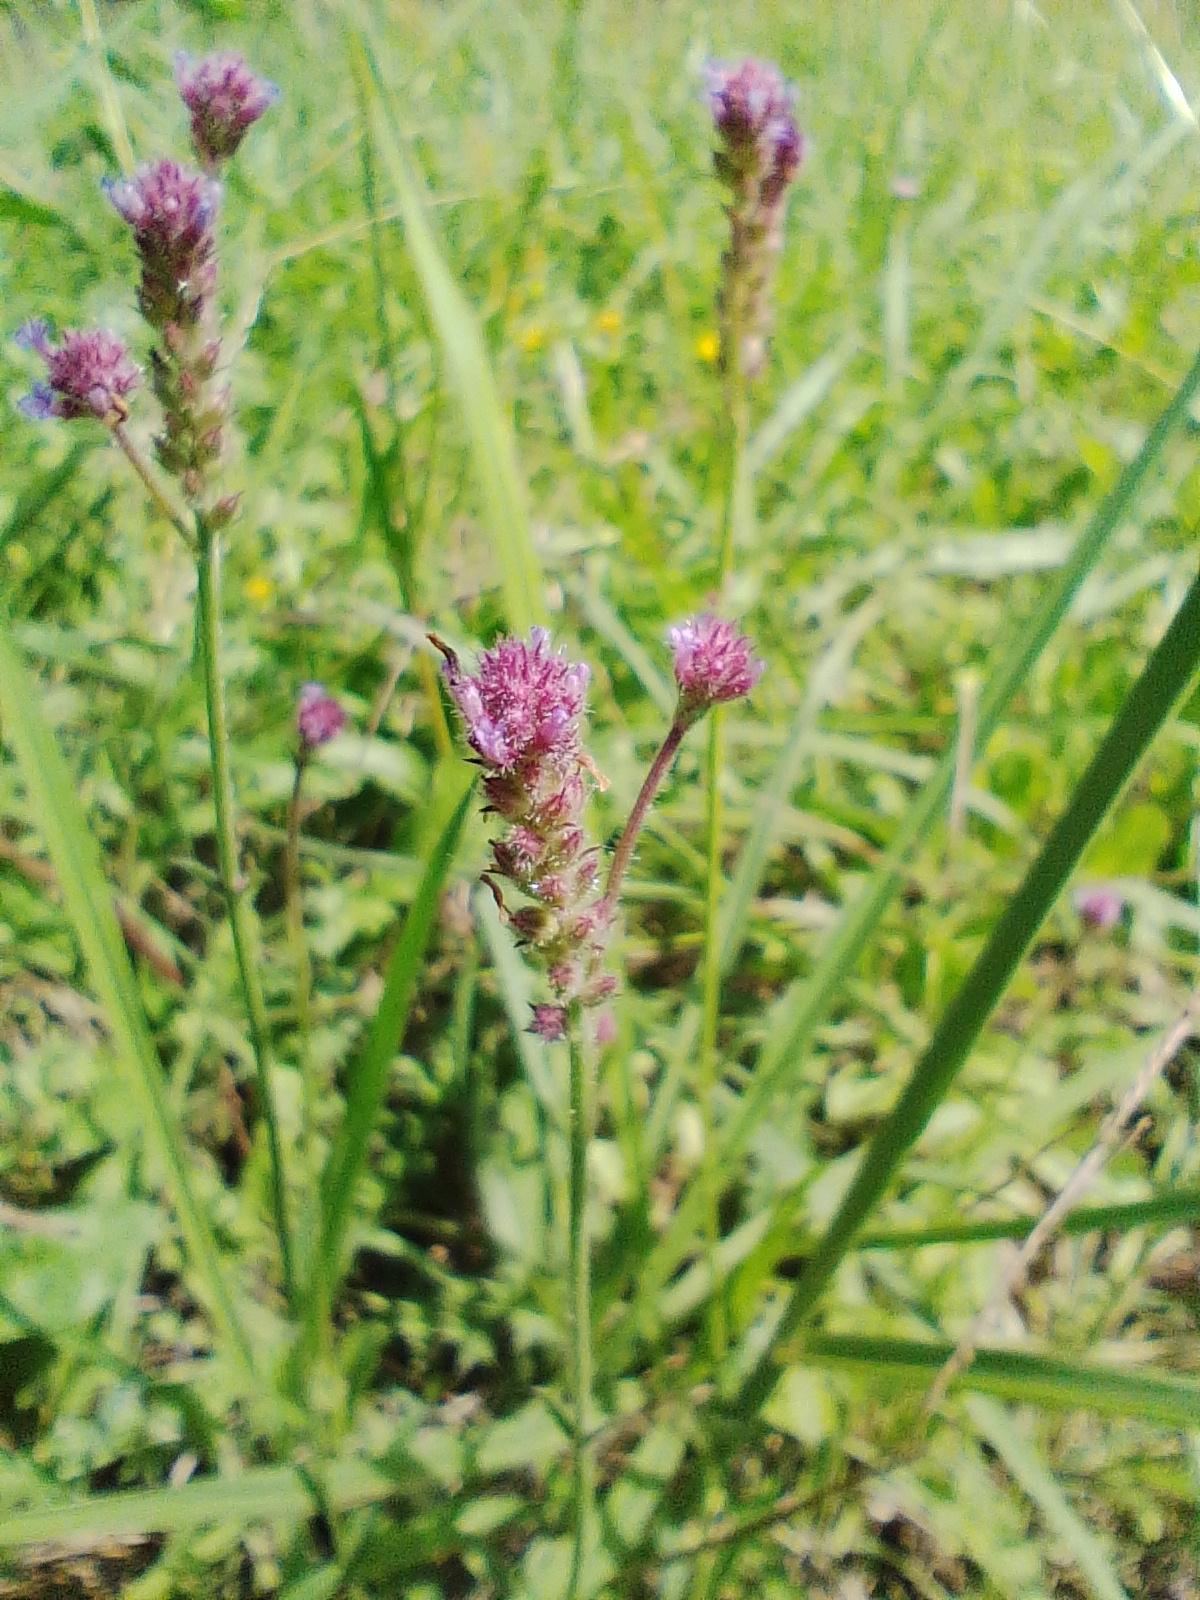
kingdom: Plantae
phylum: Tracheophyta
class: Magnoliopsida
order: Lamiales
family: Verbenaceae
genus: Verbena
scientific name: Verbena bonariensis
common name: Purpletop vervain
